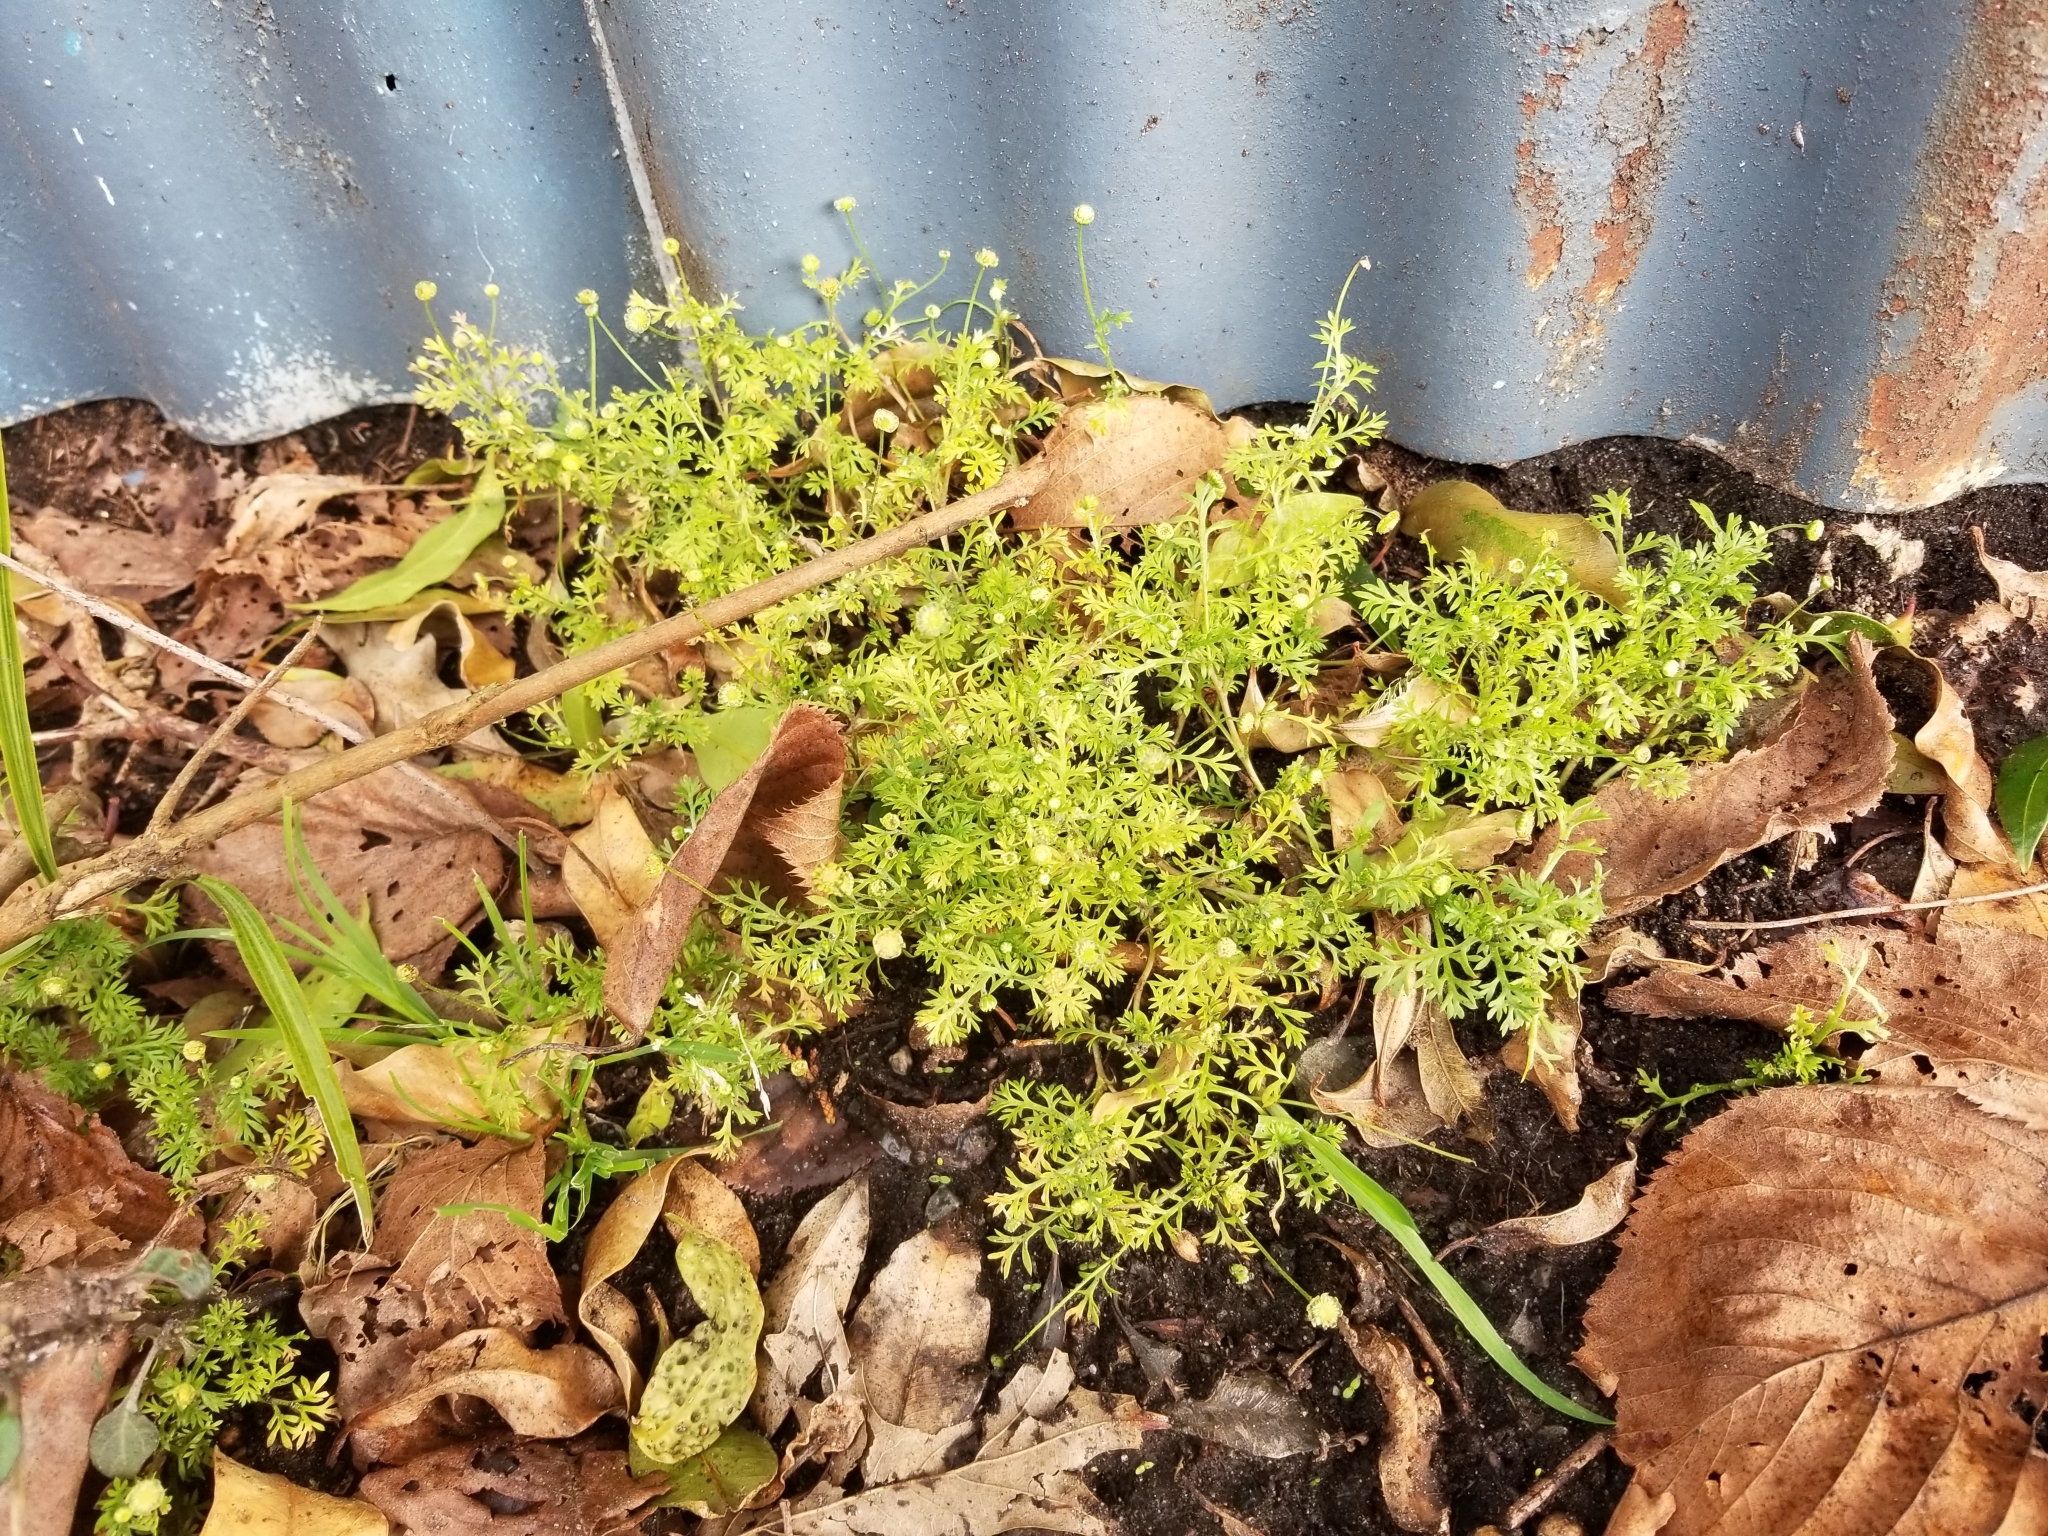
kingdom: Plantae
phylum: Tracheophyta
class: Magnoliopsida
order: Asterales
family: Asteraceae
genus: Cotula
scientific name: Cotula australis
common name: Australian waterbuttons
